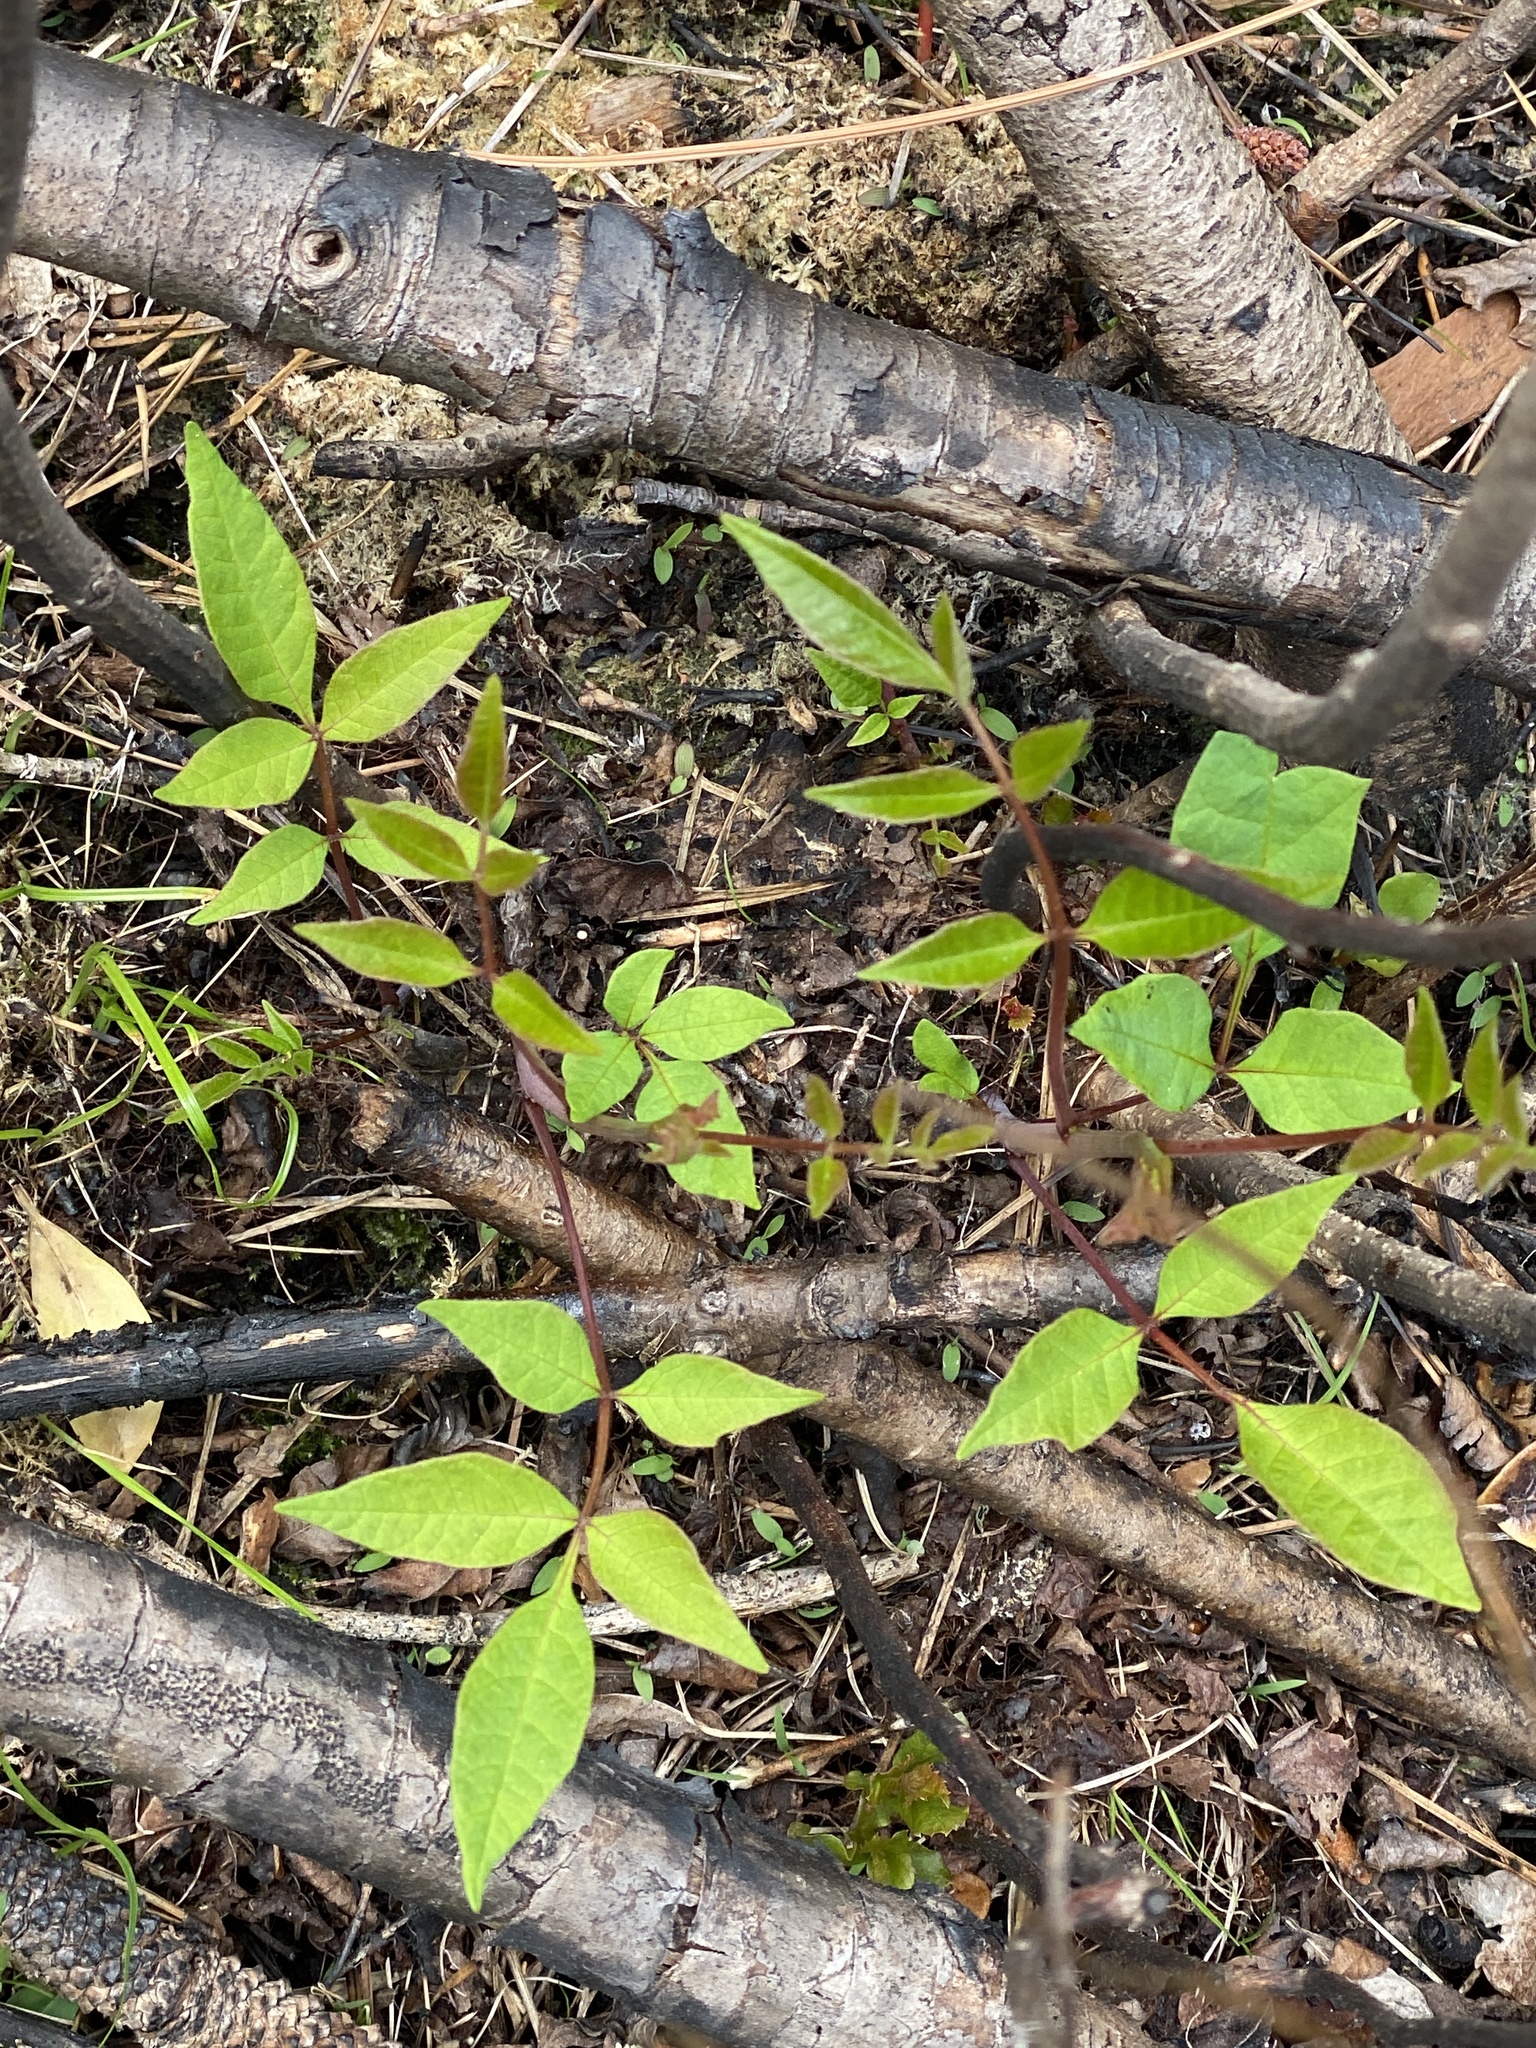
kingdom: Plantae
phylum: Tracheophyta
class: Magnoliopsida
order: Sapindales
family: Anacardiaceae
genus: Toxicodendron
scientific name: Toxicodendron vernix
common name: Poison sumac
